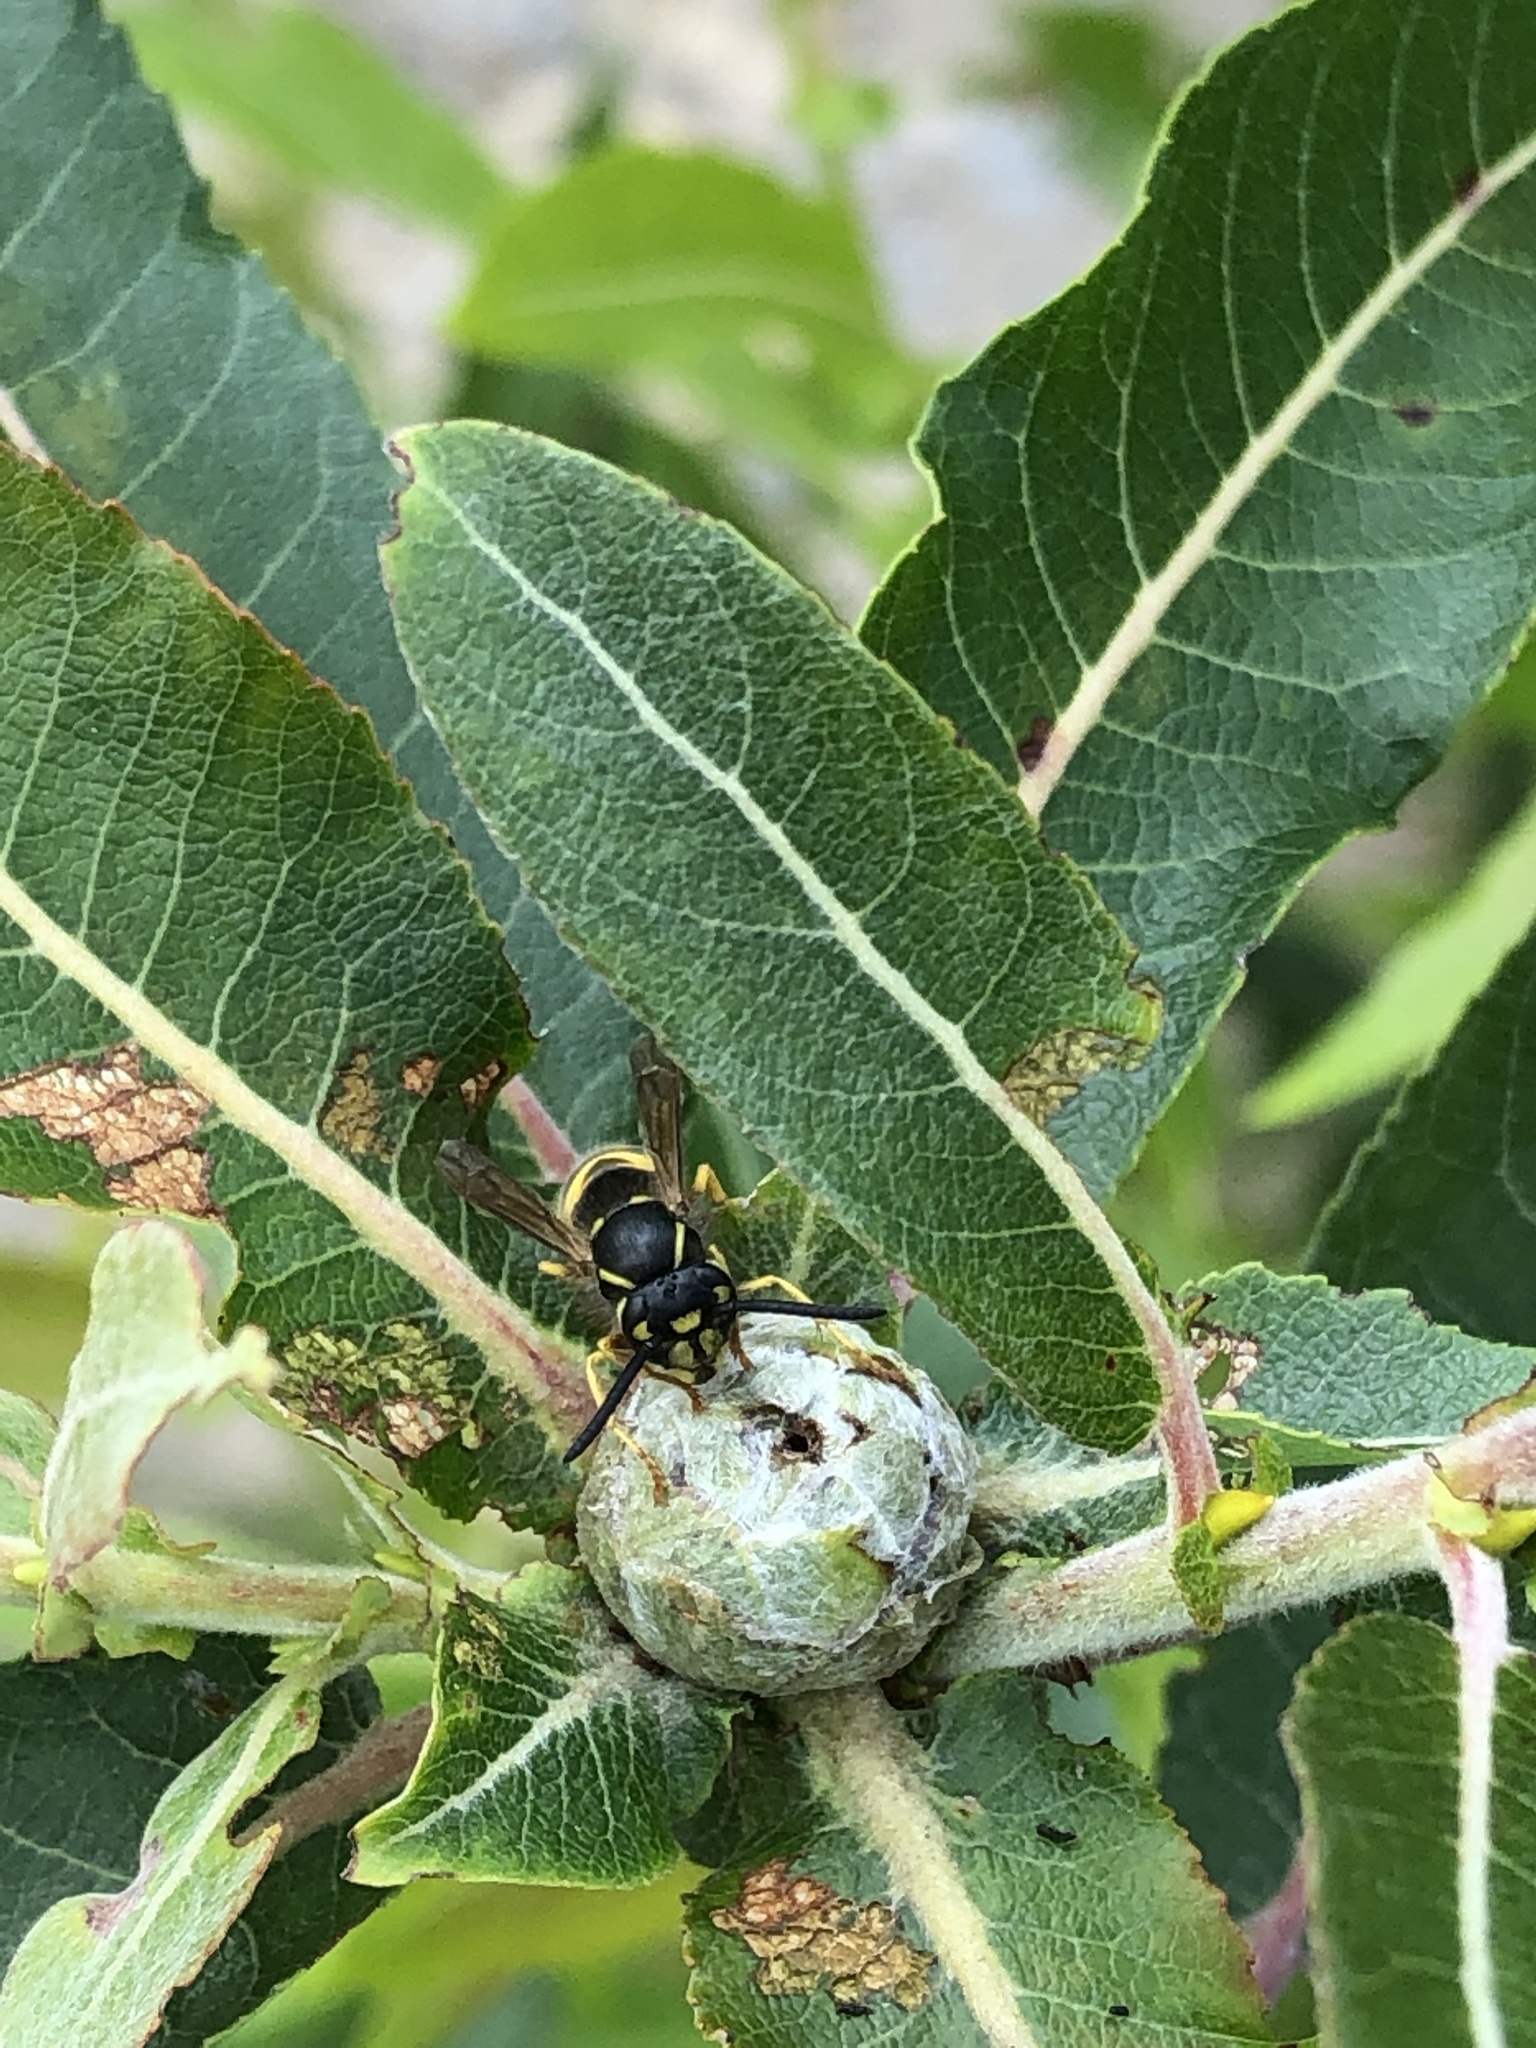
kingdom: Animalia
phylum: Arthropoda
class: Insecta
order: Hymenoptera
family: Vespidae
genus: Vespula
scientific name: Vespula alascensis
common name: Alaska yellowjacket
